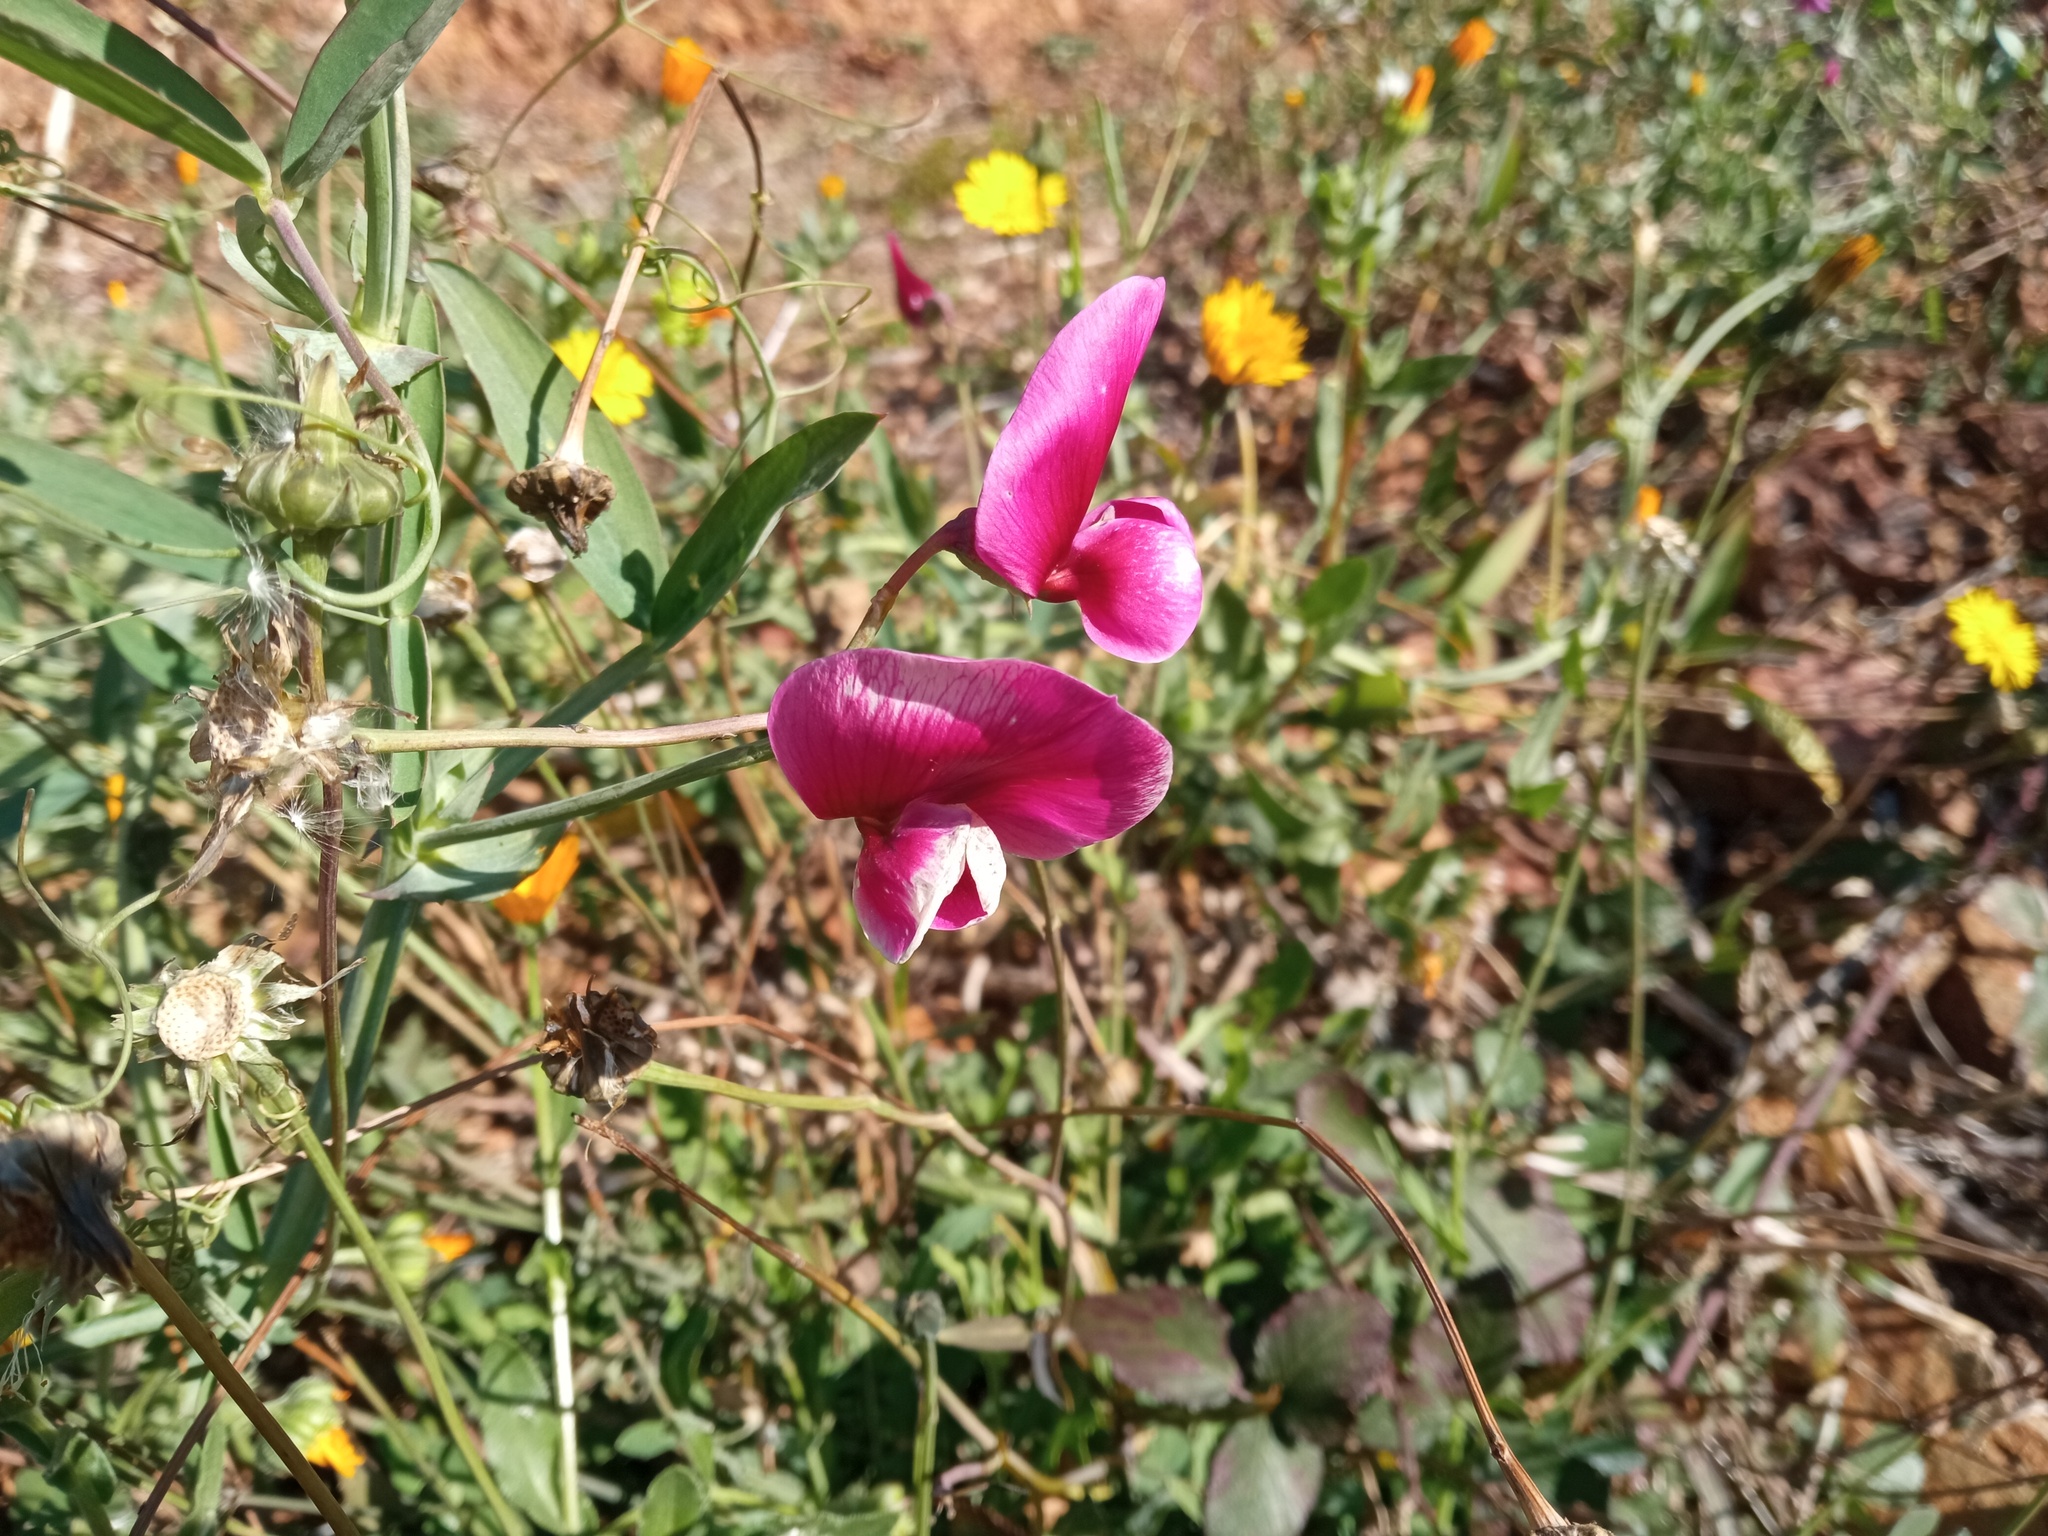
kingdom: Plantae
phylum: Tracheophyta
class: Magnoliopsida
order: Fabales
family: Fabaceae
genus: Lathyrus
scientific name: Lathyrus tingitanus
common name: Tangier pea
